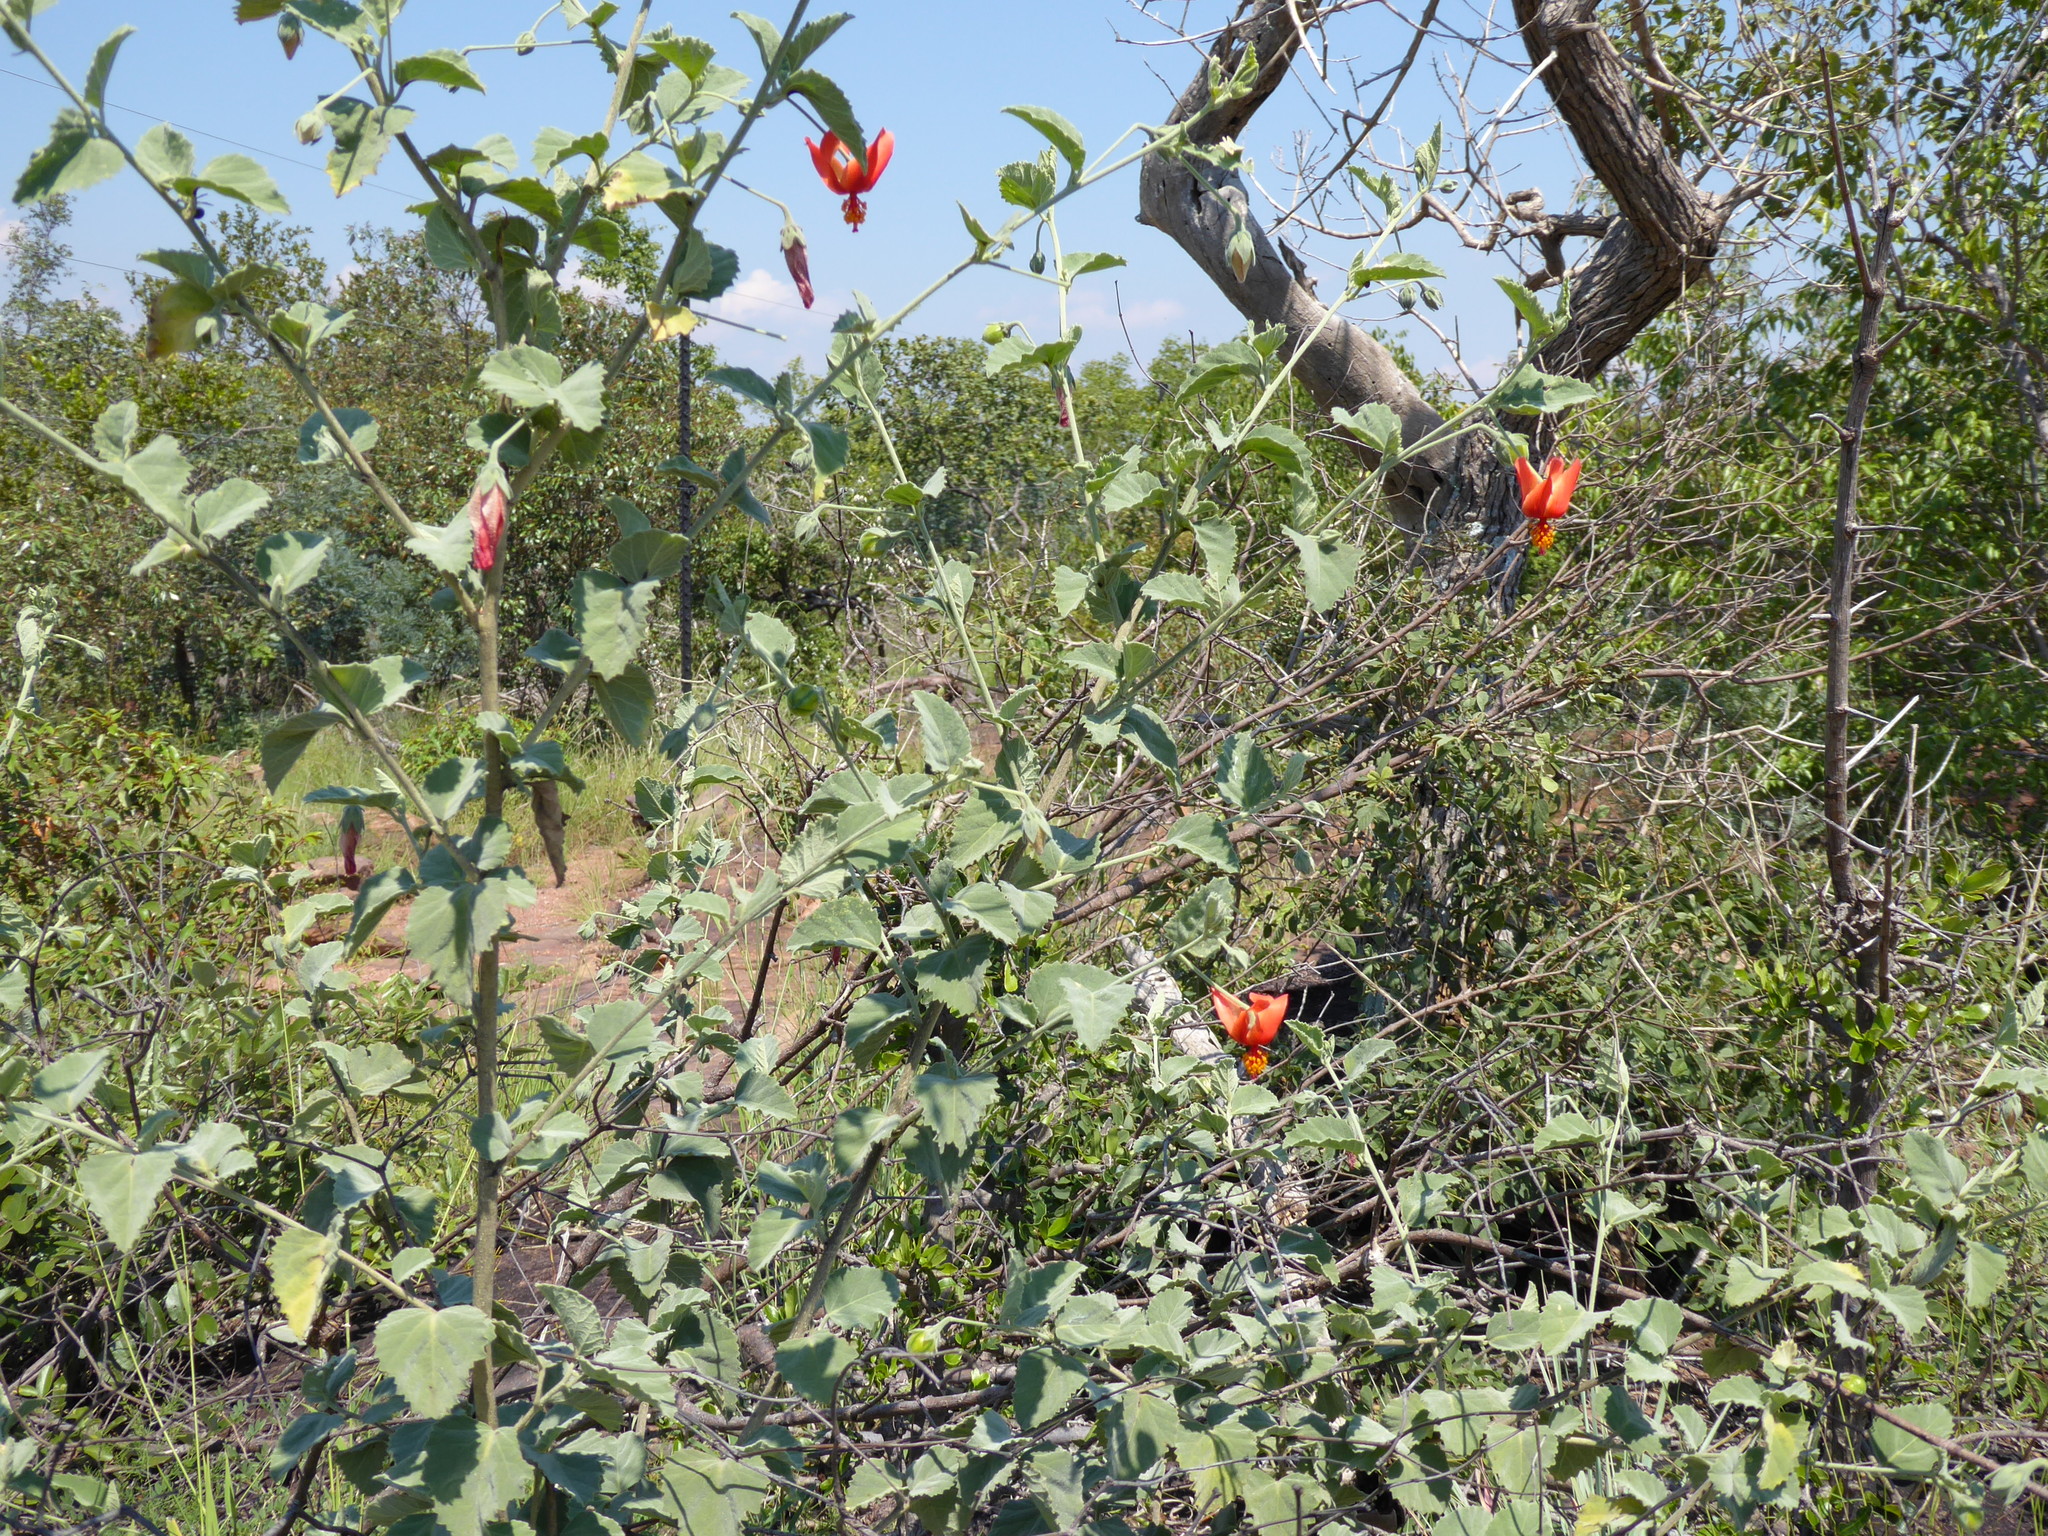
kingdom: Plantae
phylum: Tracheophyta
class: Magnoliopsida
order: Malvales
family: Malvaceae
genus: Hibiscus
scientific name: Hibiscus waterbergensis
